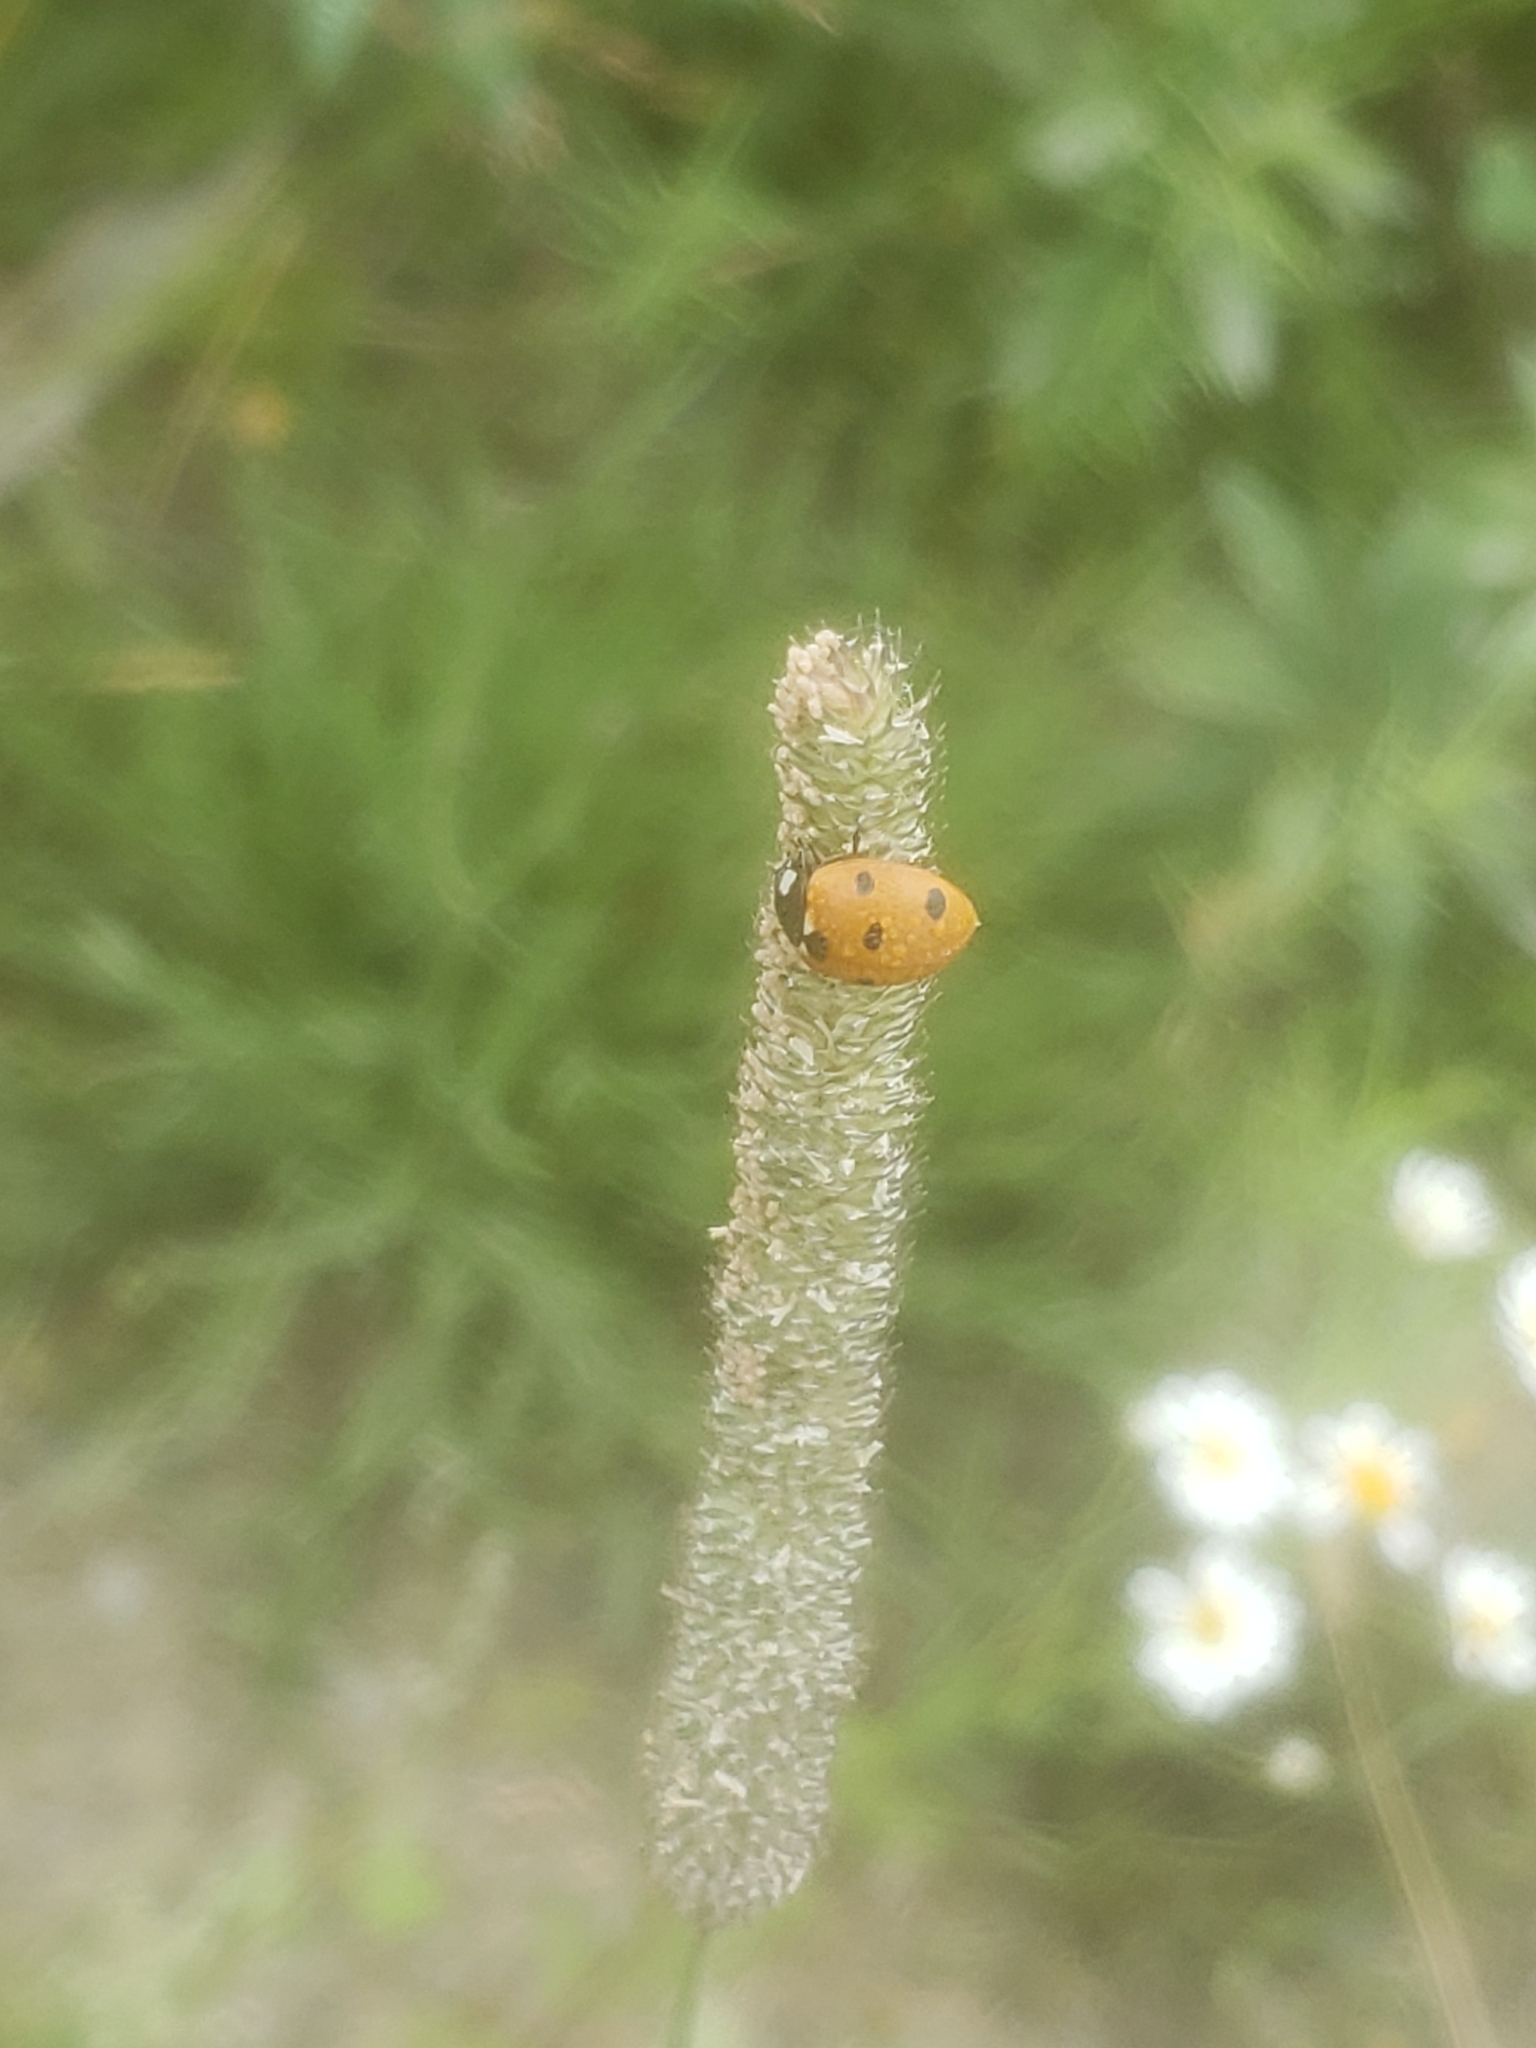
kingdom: Animalia
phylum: Arthropoda
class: Insecta
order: Coleoptera
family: Coccinellidae
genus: Coccinella
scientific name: Coccinella septempunctata
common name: Sevenspotted lady beetle
